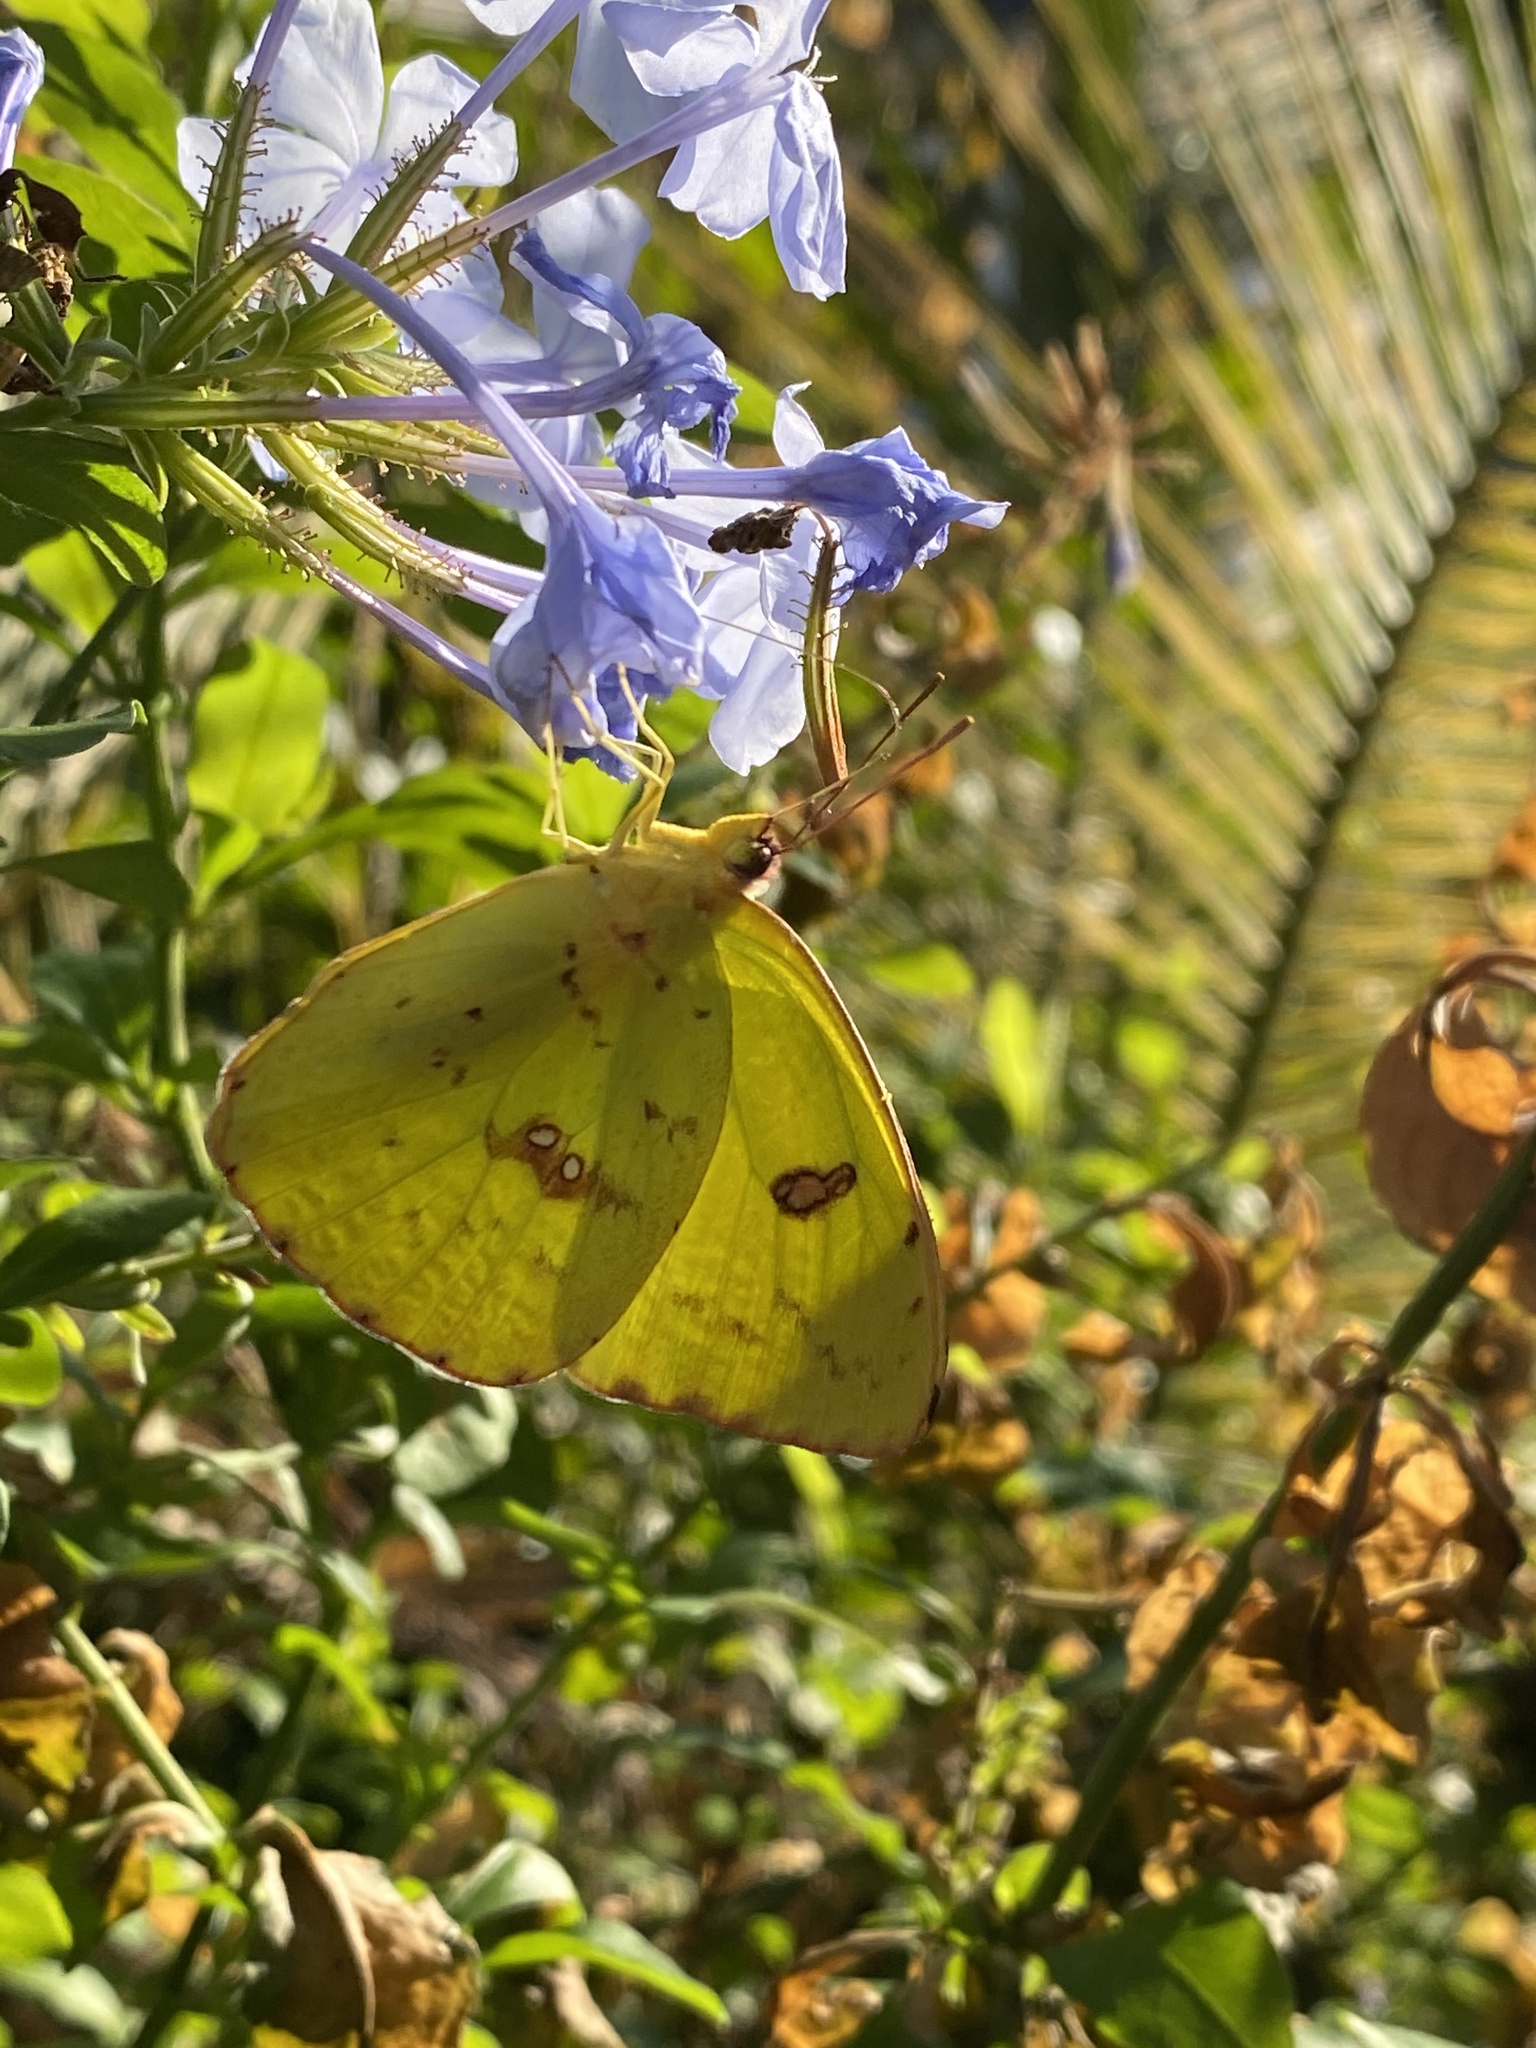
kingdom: Animalia
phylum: Arthropoda
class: Insecta
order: Lepidoptera
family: Pieridae
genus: Phoebis
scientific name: Phoebis sennae
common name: Cloudless sulphur
